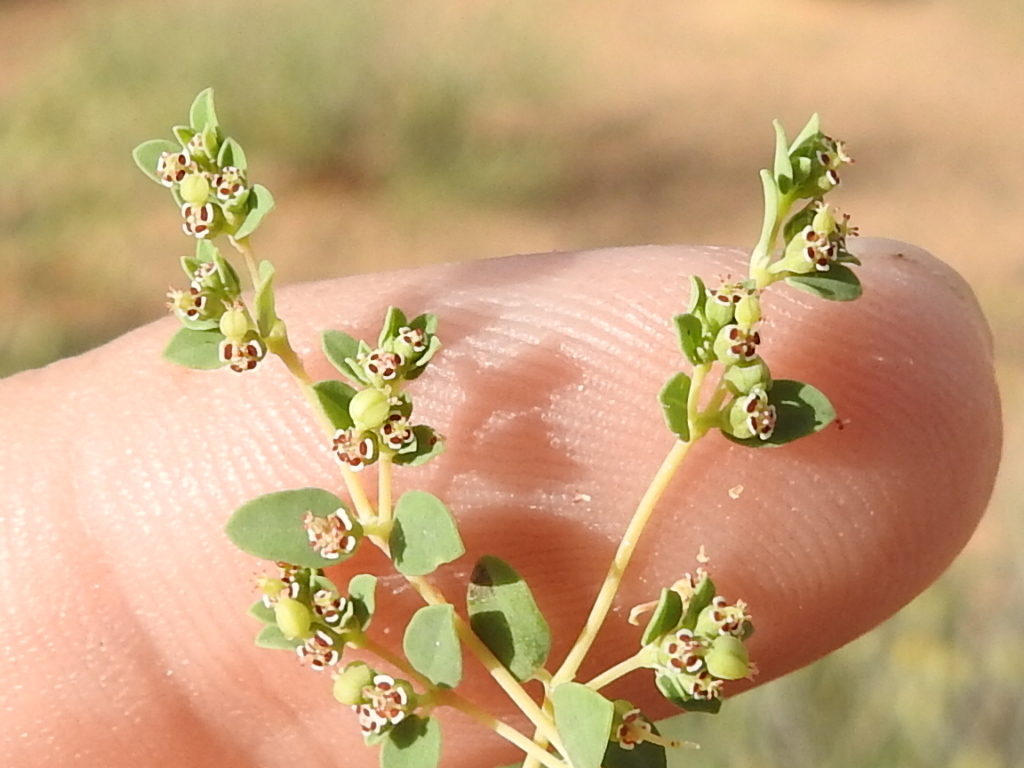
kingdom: Plantae
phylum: Tracheophyta
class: Magnoliopsida
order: Malpighiales
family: Euphorbiaceae
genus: Euphorbia
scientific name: Euphorbia polycarpa
